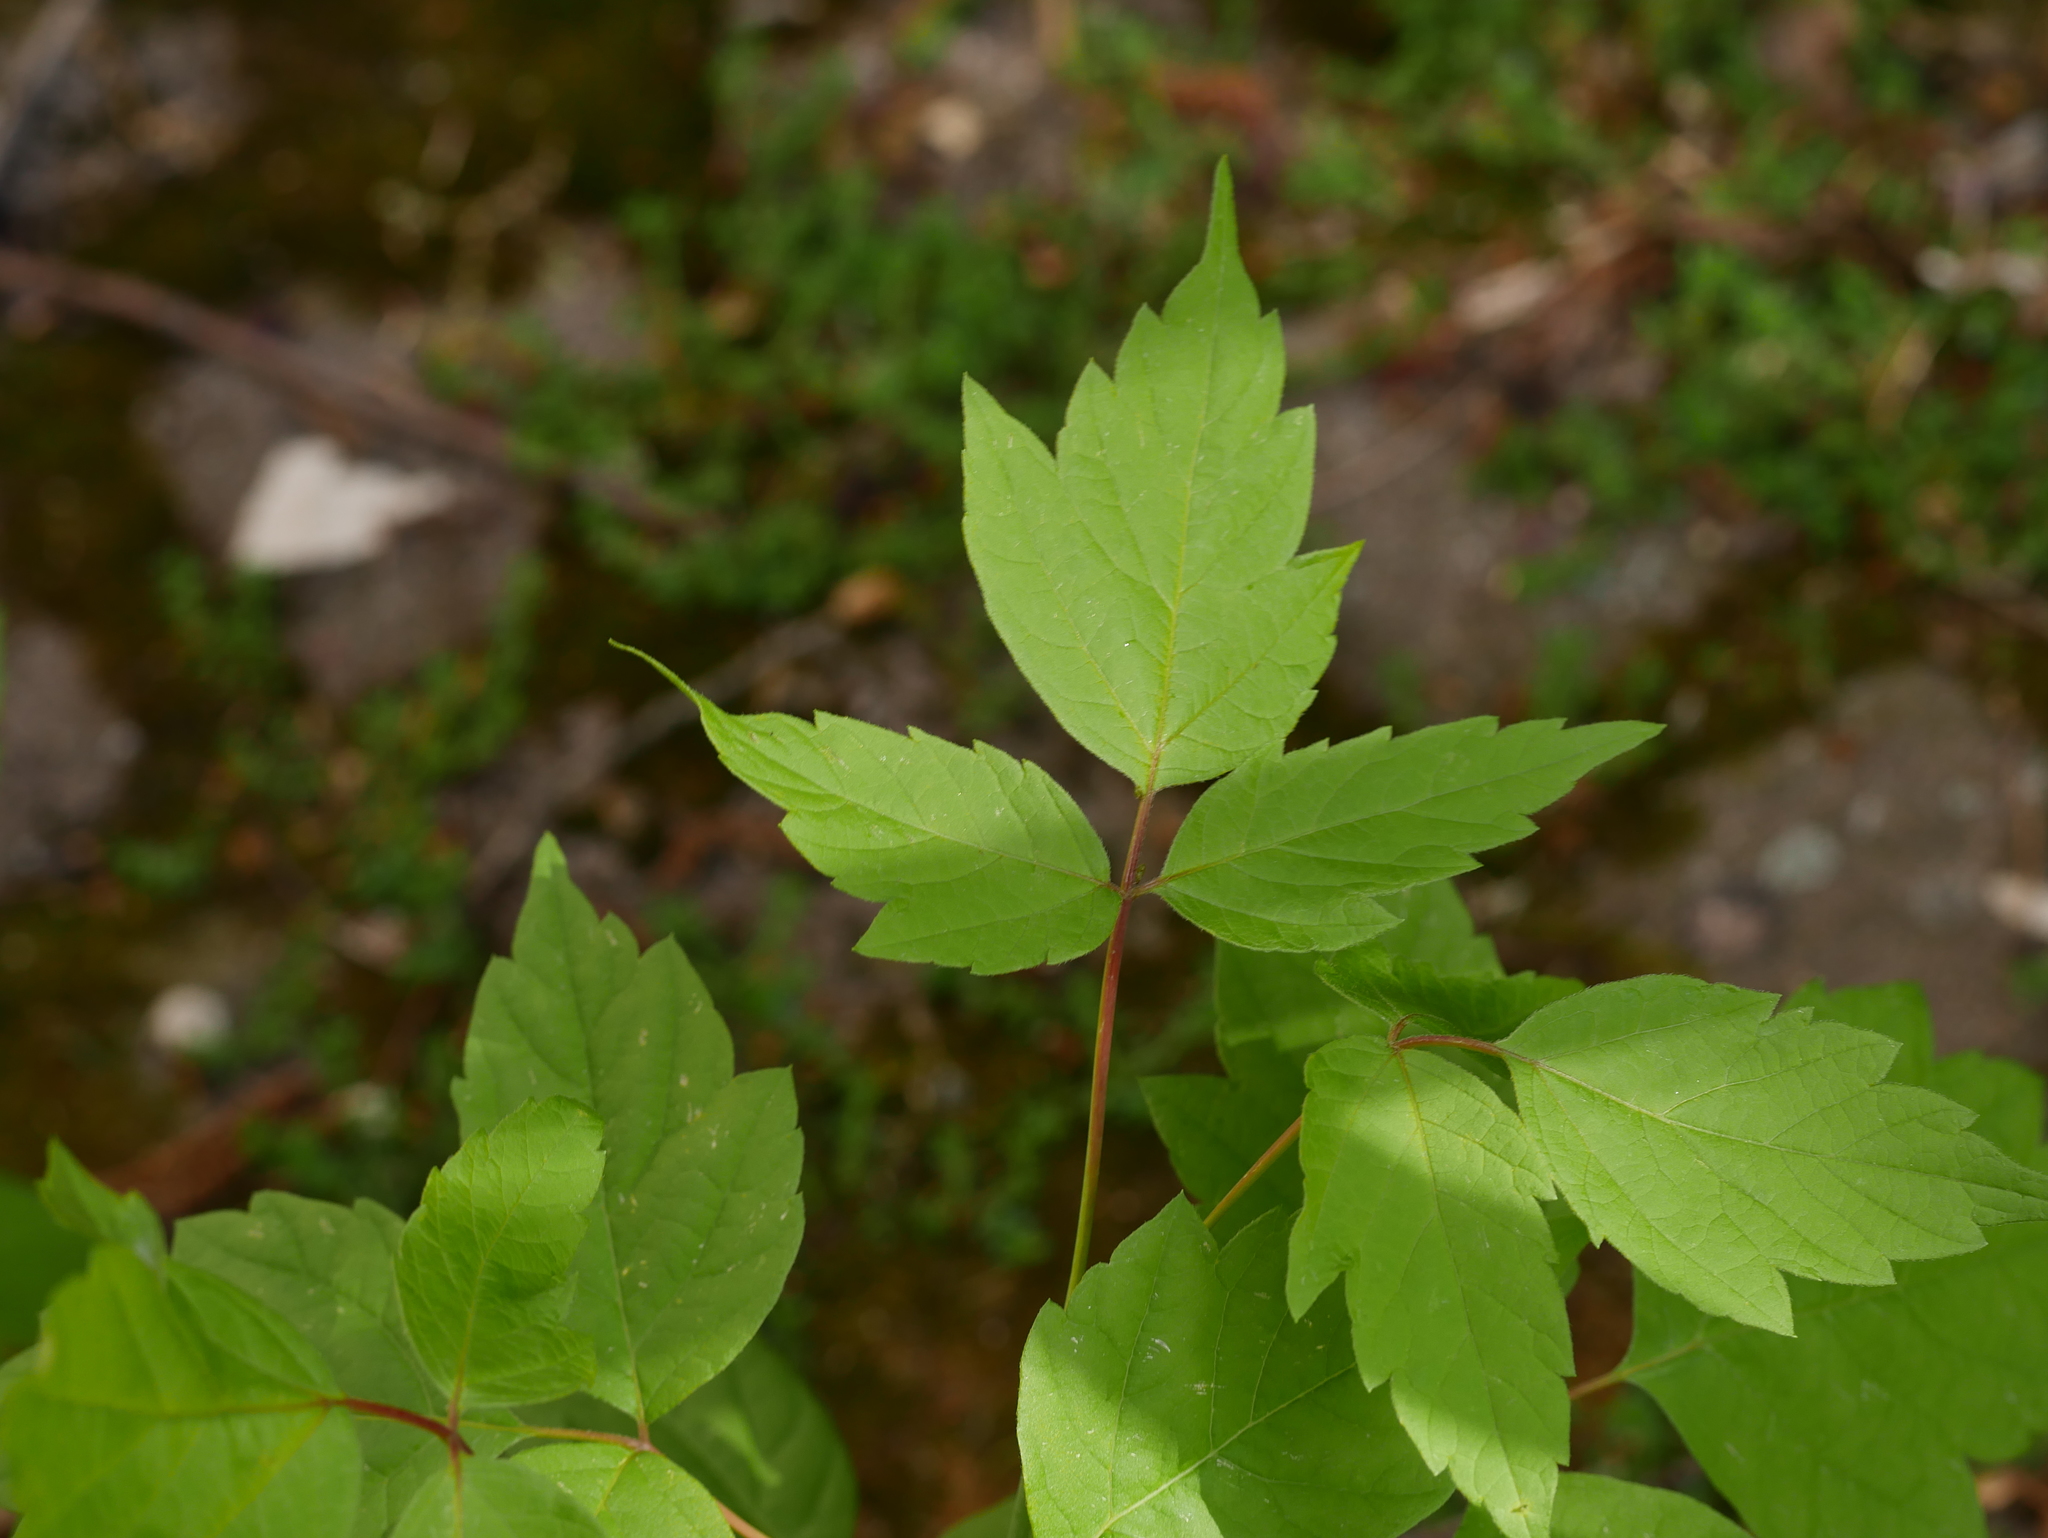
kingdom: Plantae
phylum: Tracheophyta
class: Magnoliopsida
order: Sapindales
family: Sapindaceae
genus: Acer
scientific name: Acer negundo
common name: Ashleaf maple
